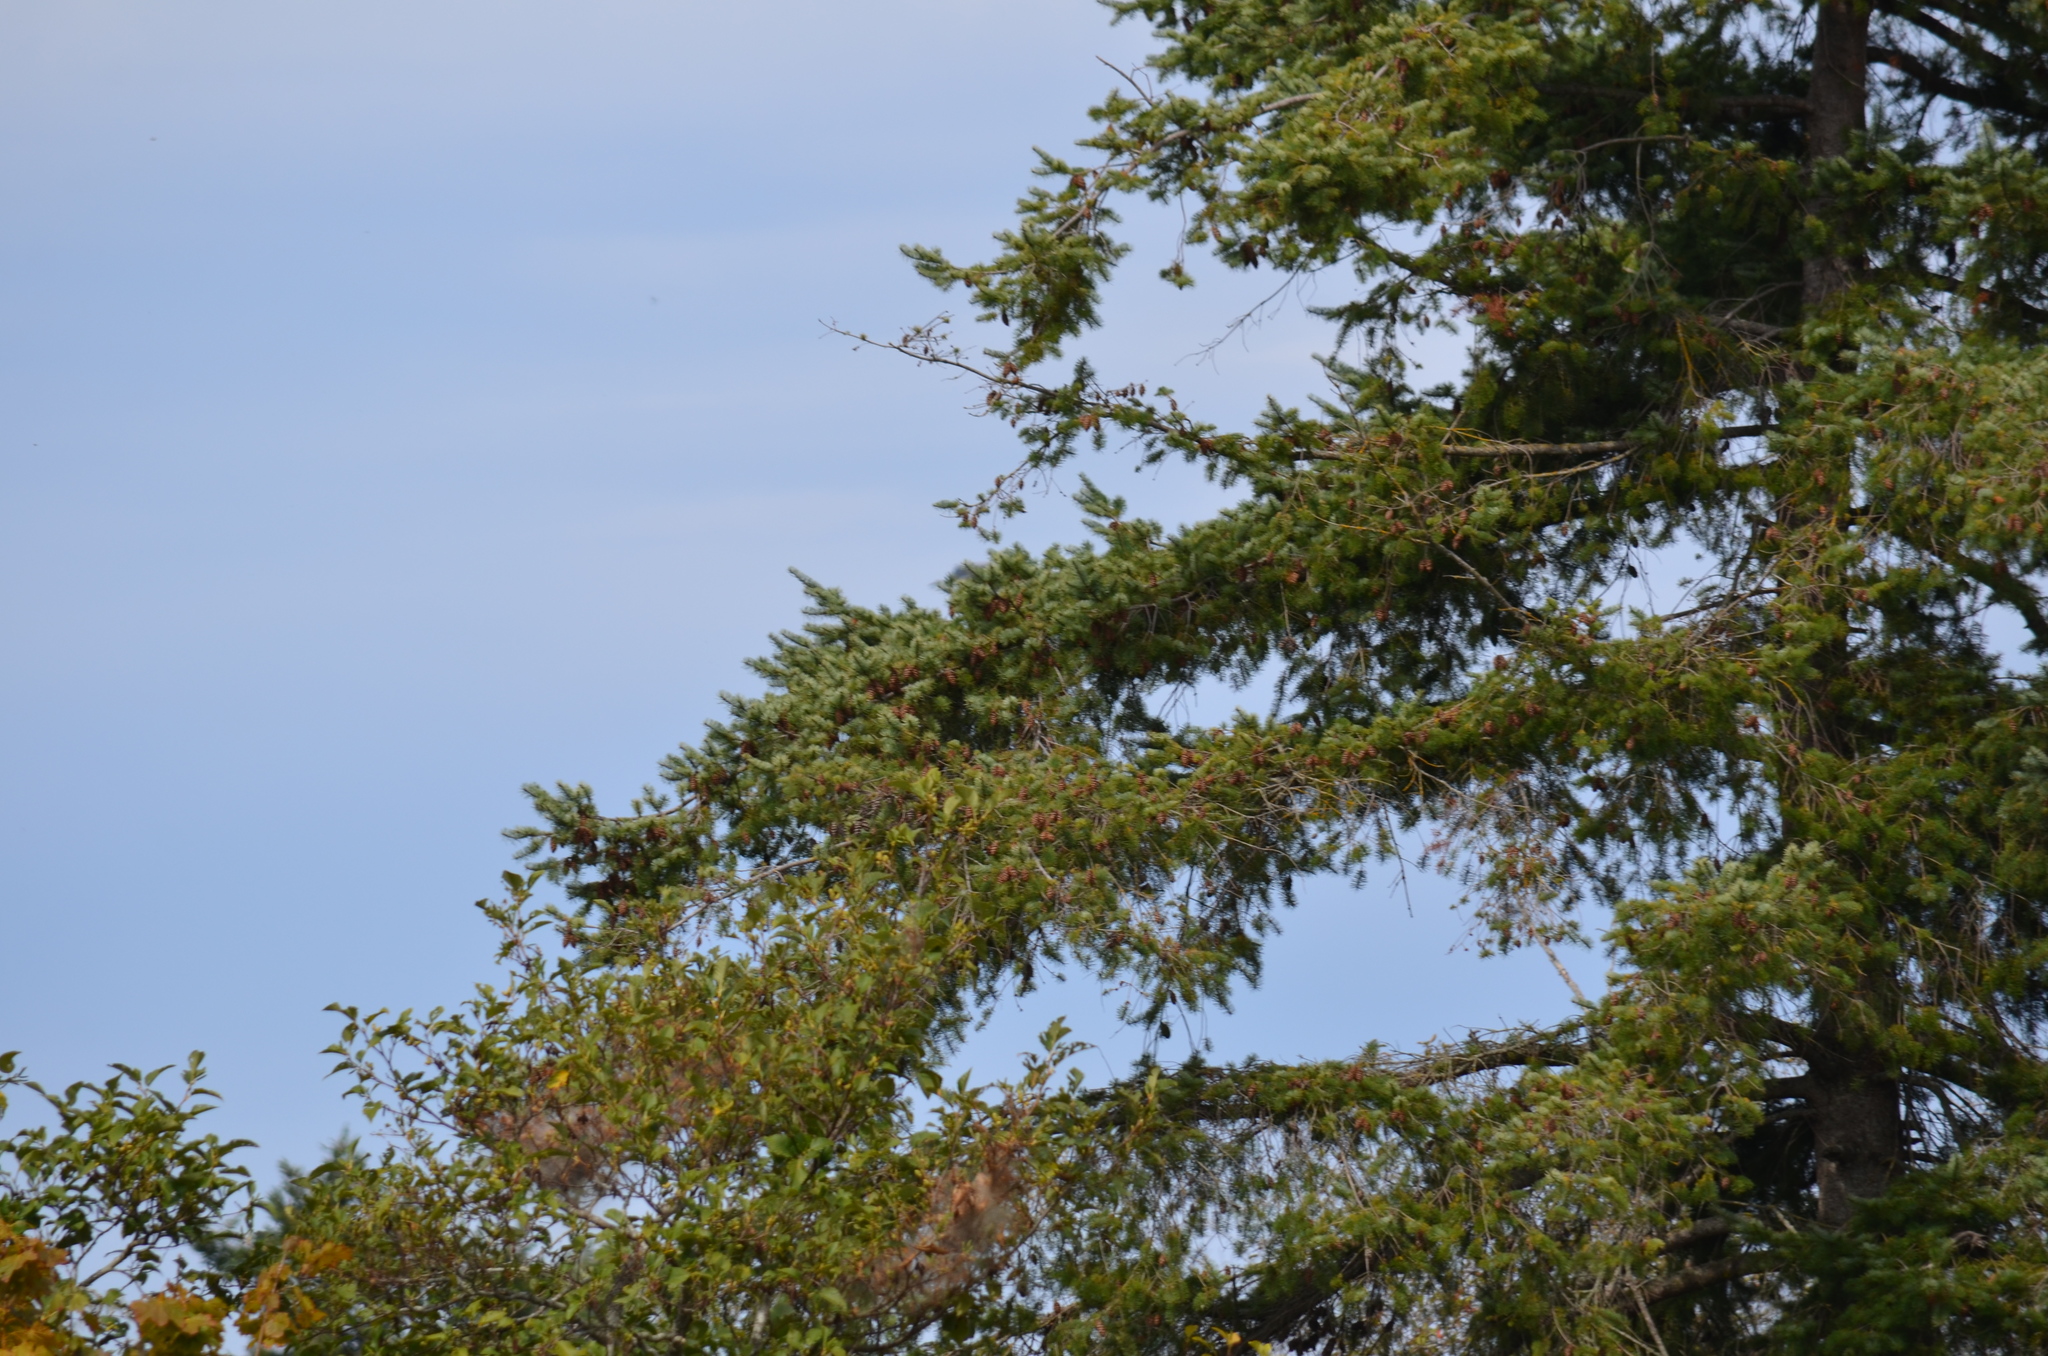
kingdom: Plantae
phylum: Tracheophyta
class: Pinopsida
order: Pinales
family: Pinaceae
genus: Pseudotsuga
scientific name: Pseudotsuga menziesii
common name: Douglas fir
